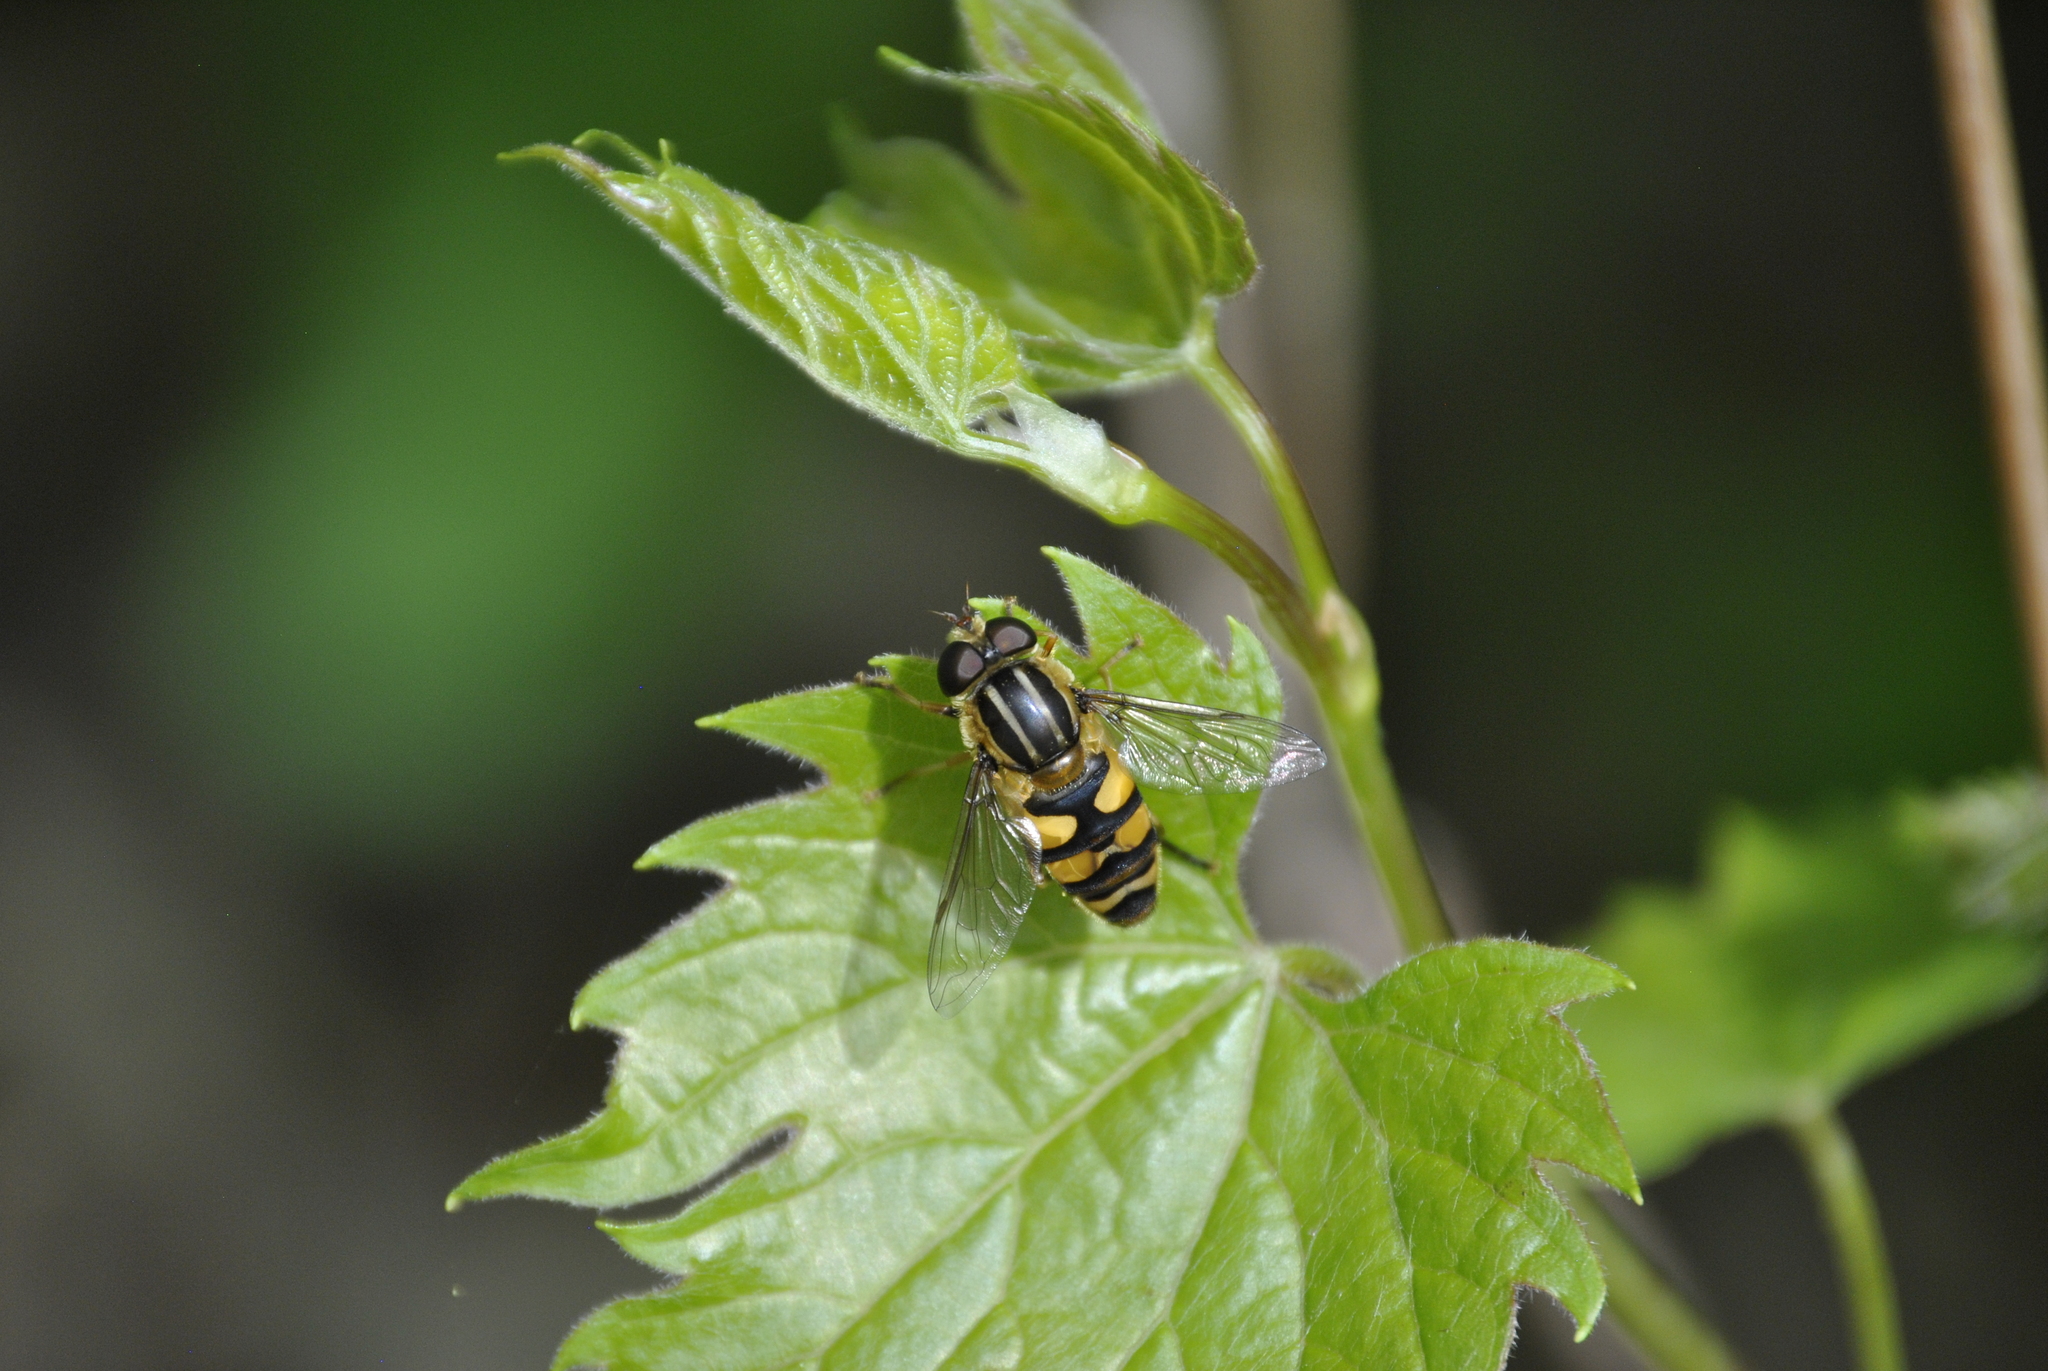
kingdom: Animalia
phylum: Arthropoda
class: Insecta
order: Diptera
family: Syrphidae
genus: Helophilus
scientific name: Helophilus fasciatus
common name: Narrow-headed marsh fly
